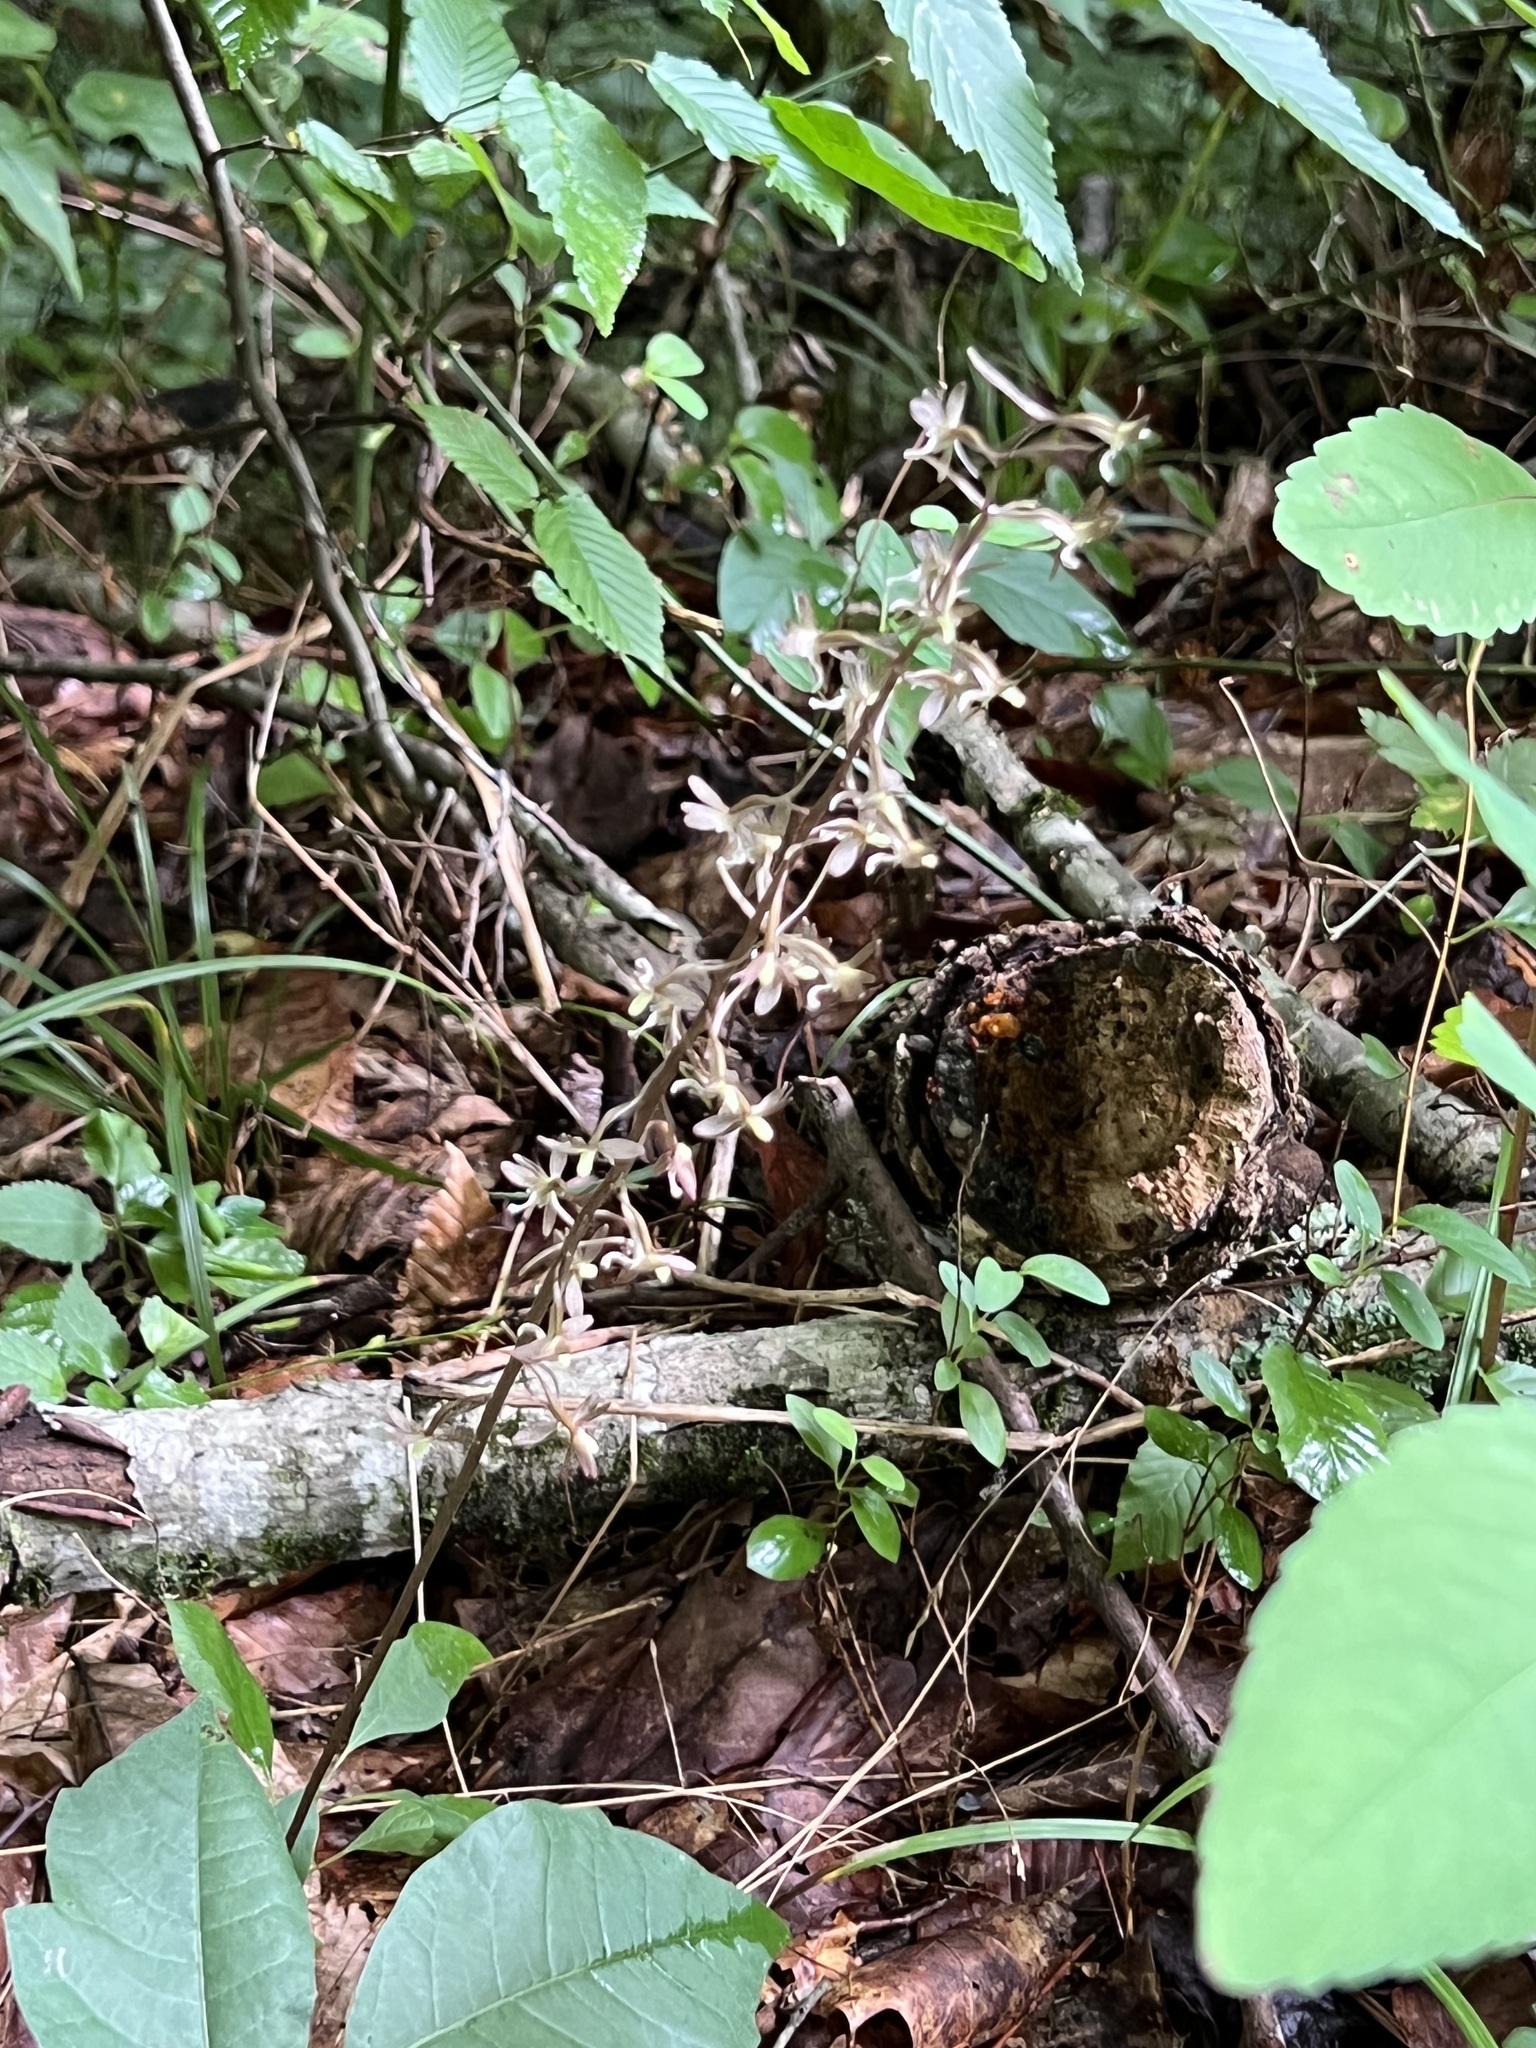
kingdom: Plantae
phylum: Tracheophyta
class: Liliopsida
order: Asparagales
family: Orchidaceae
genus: Tipularia
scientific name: Tipularia discolor
